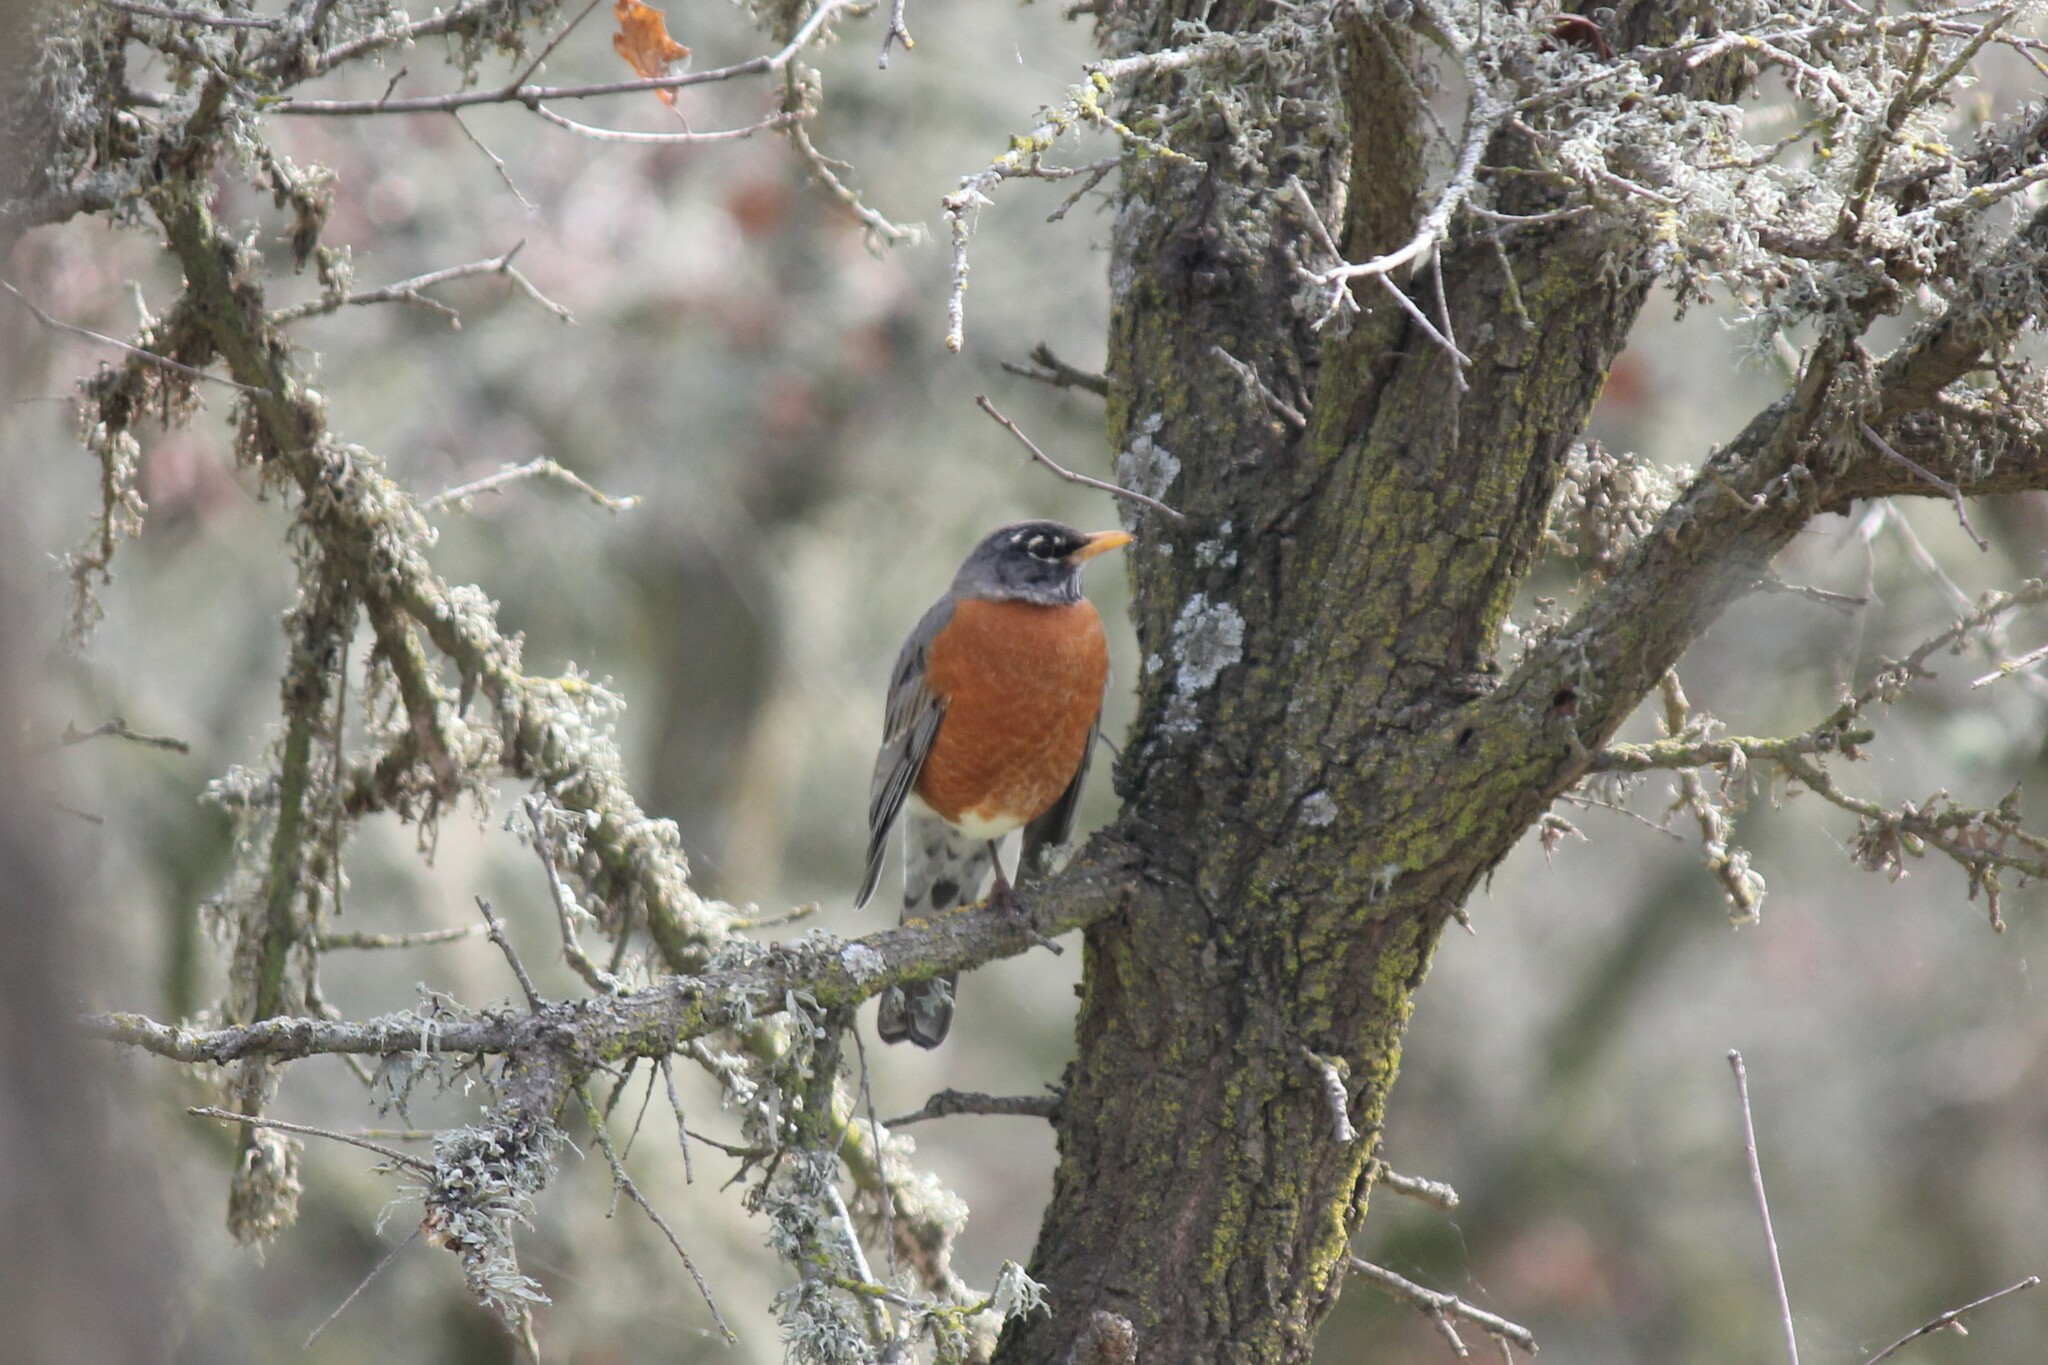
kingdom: Animalia
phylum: Chordata
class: Aves
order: Passeriformes
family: Turdidae
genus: Turdus
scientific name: Turdus migratorius
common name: American robin
